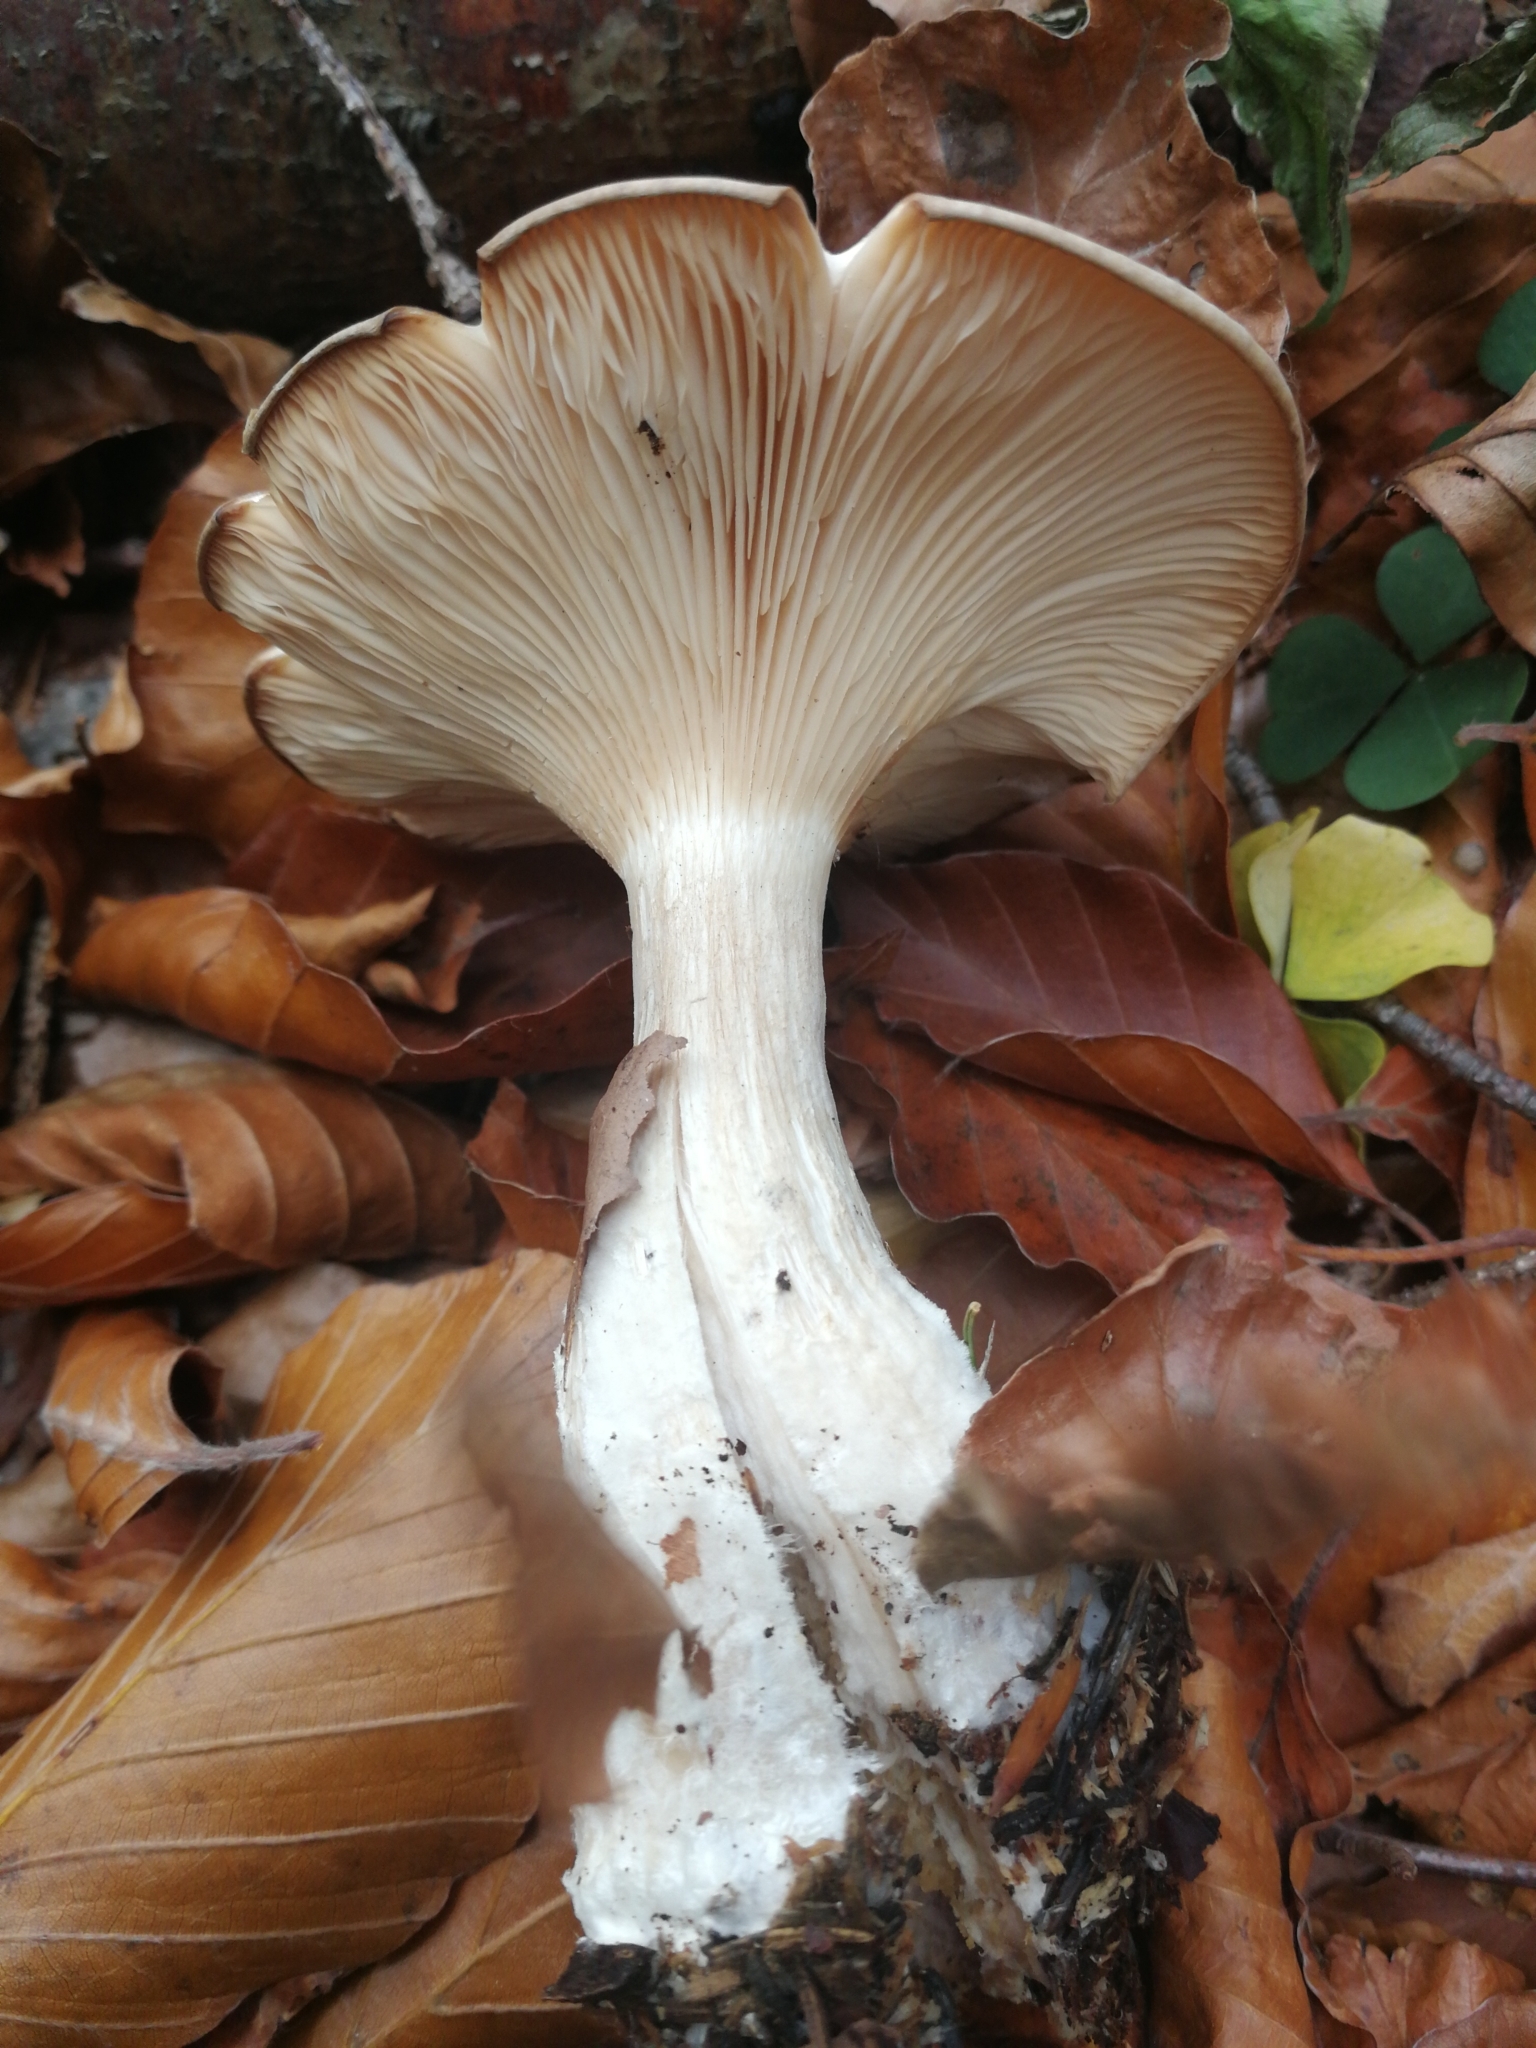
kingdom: Fungi
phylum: Basidiomycota
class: Agaricomycetes
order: Agaricales
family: Tricholomataceae
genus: Clitocybe
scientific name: Clitocybe nebularis
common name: Clouded agaric
